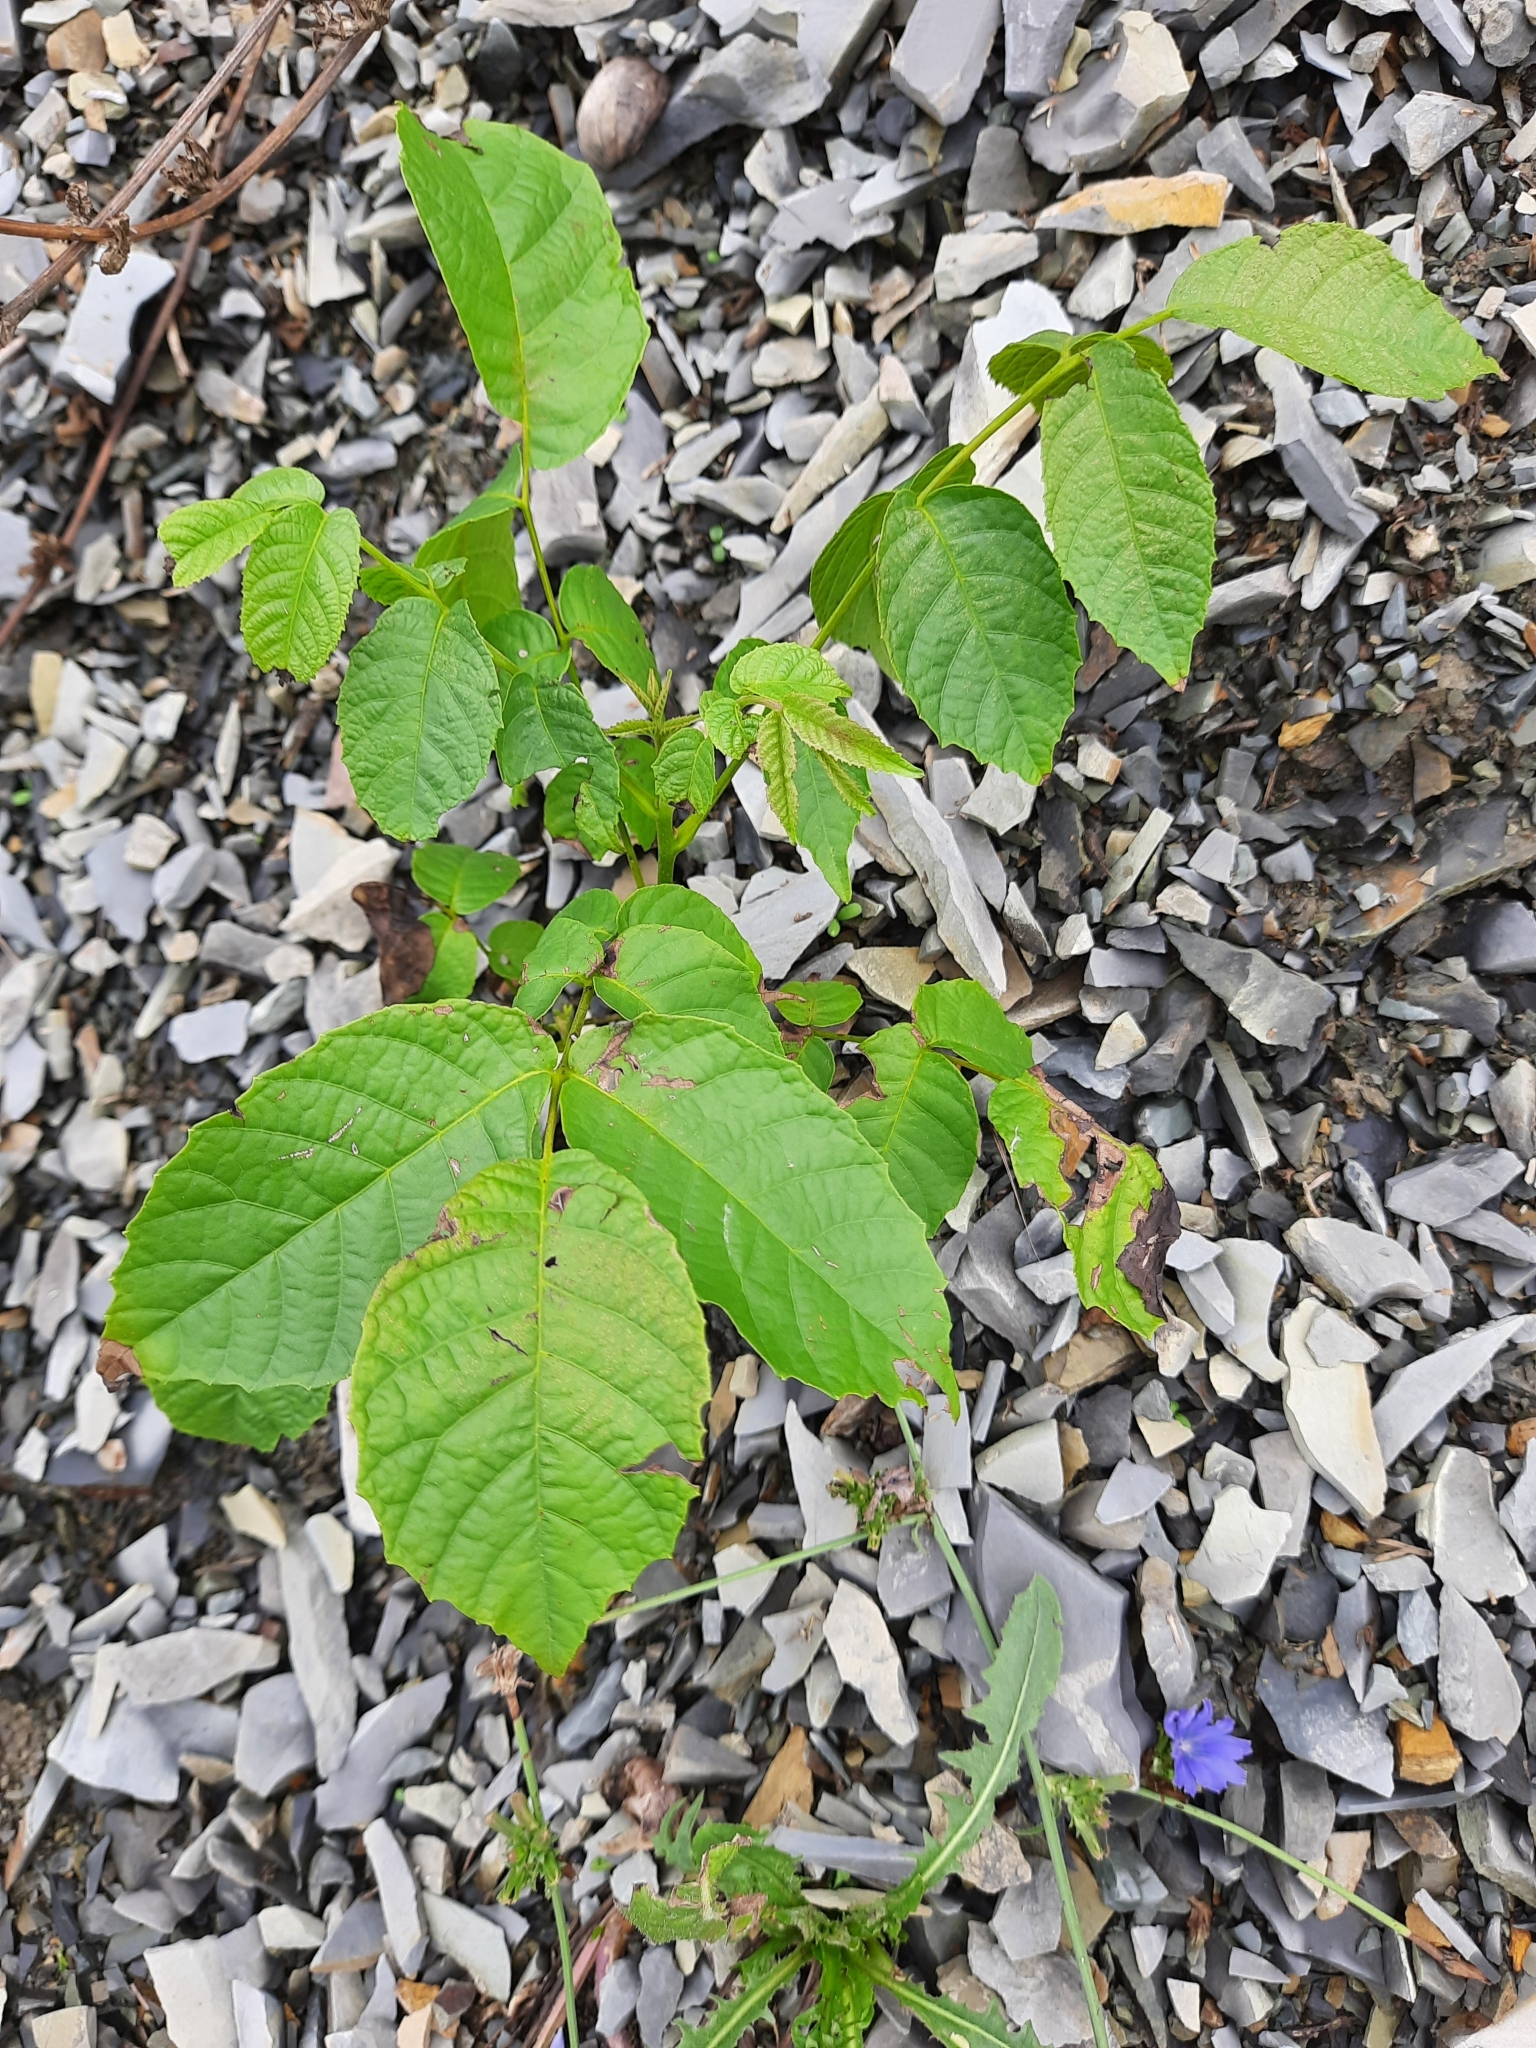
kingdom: Plantae
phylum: Tracheophyta
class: Magnoliopsida
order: Fagales
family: Juglandaceae
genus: Juglans
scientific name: Juglans regia
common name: Walnut
